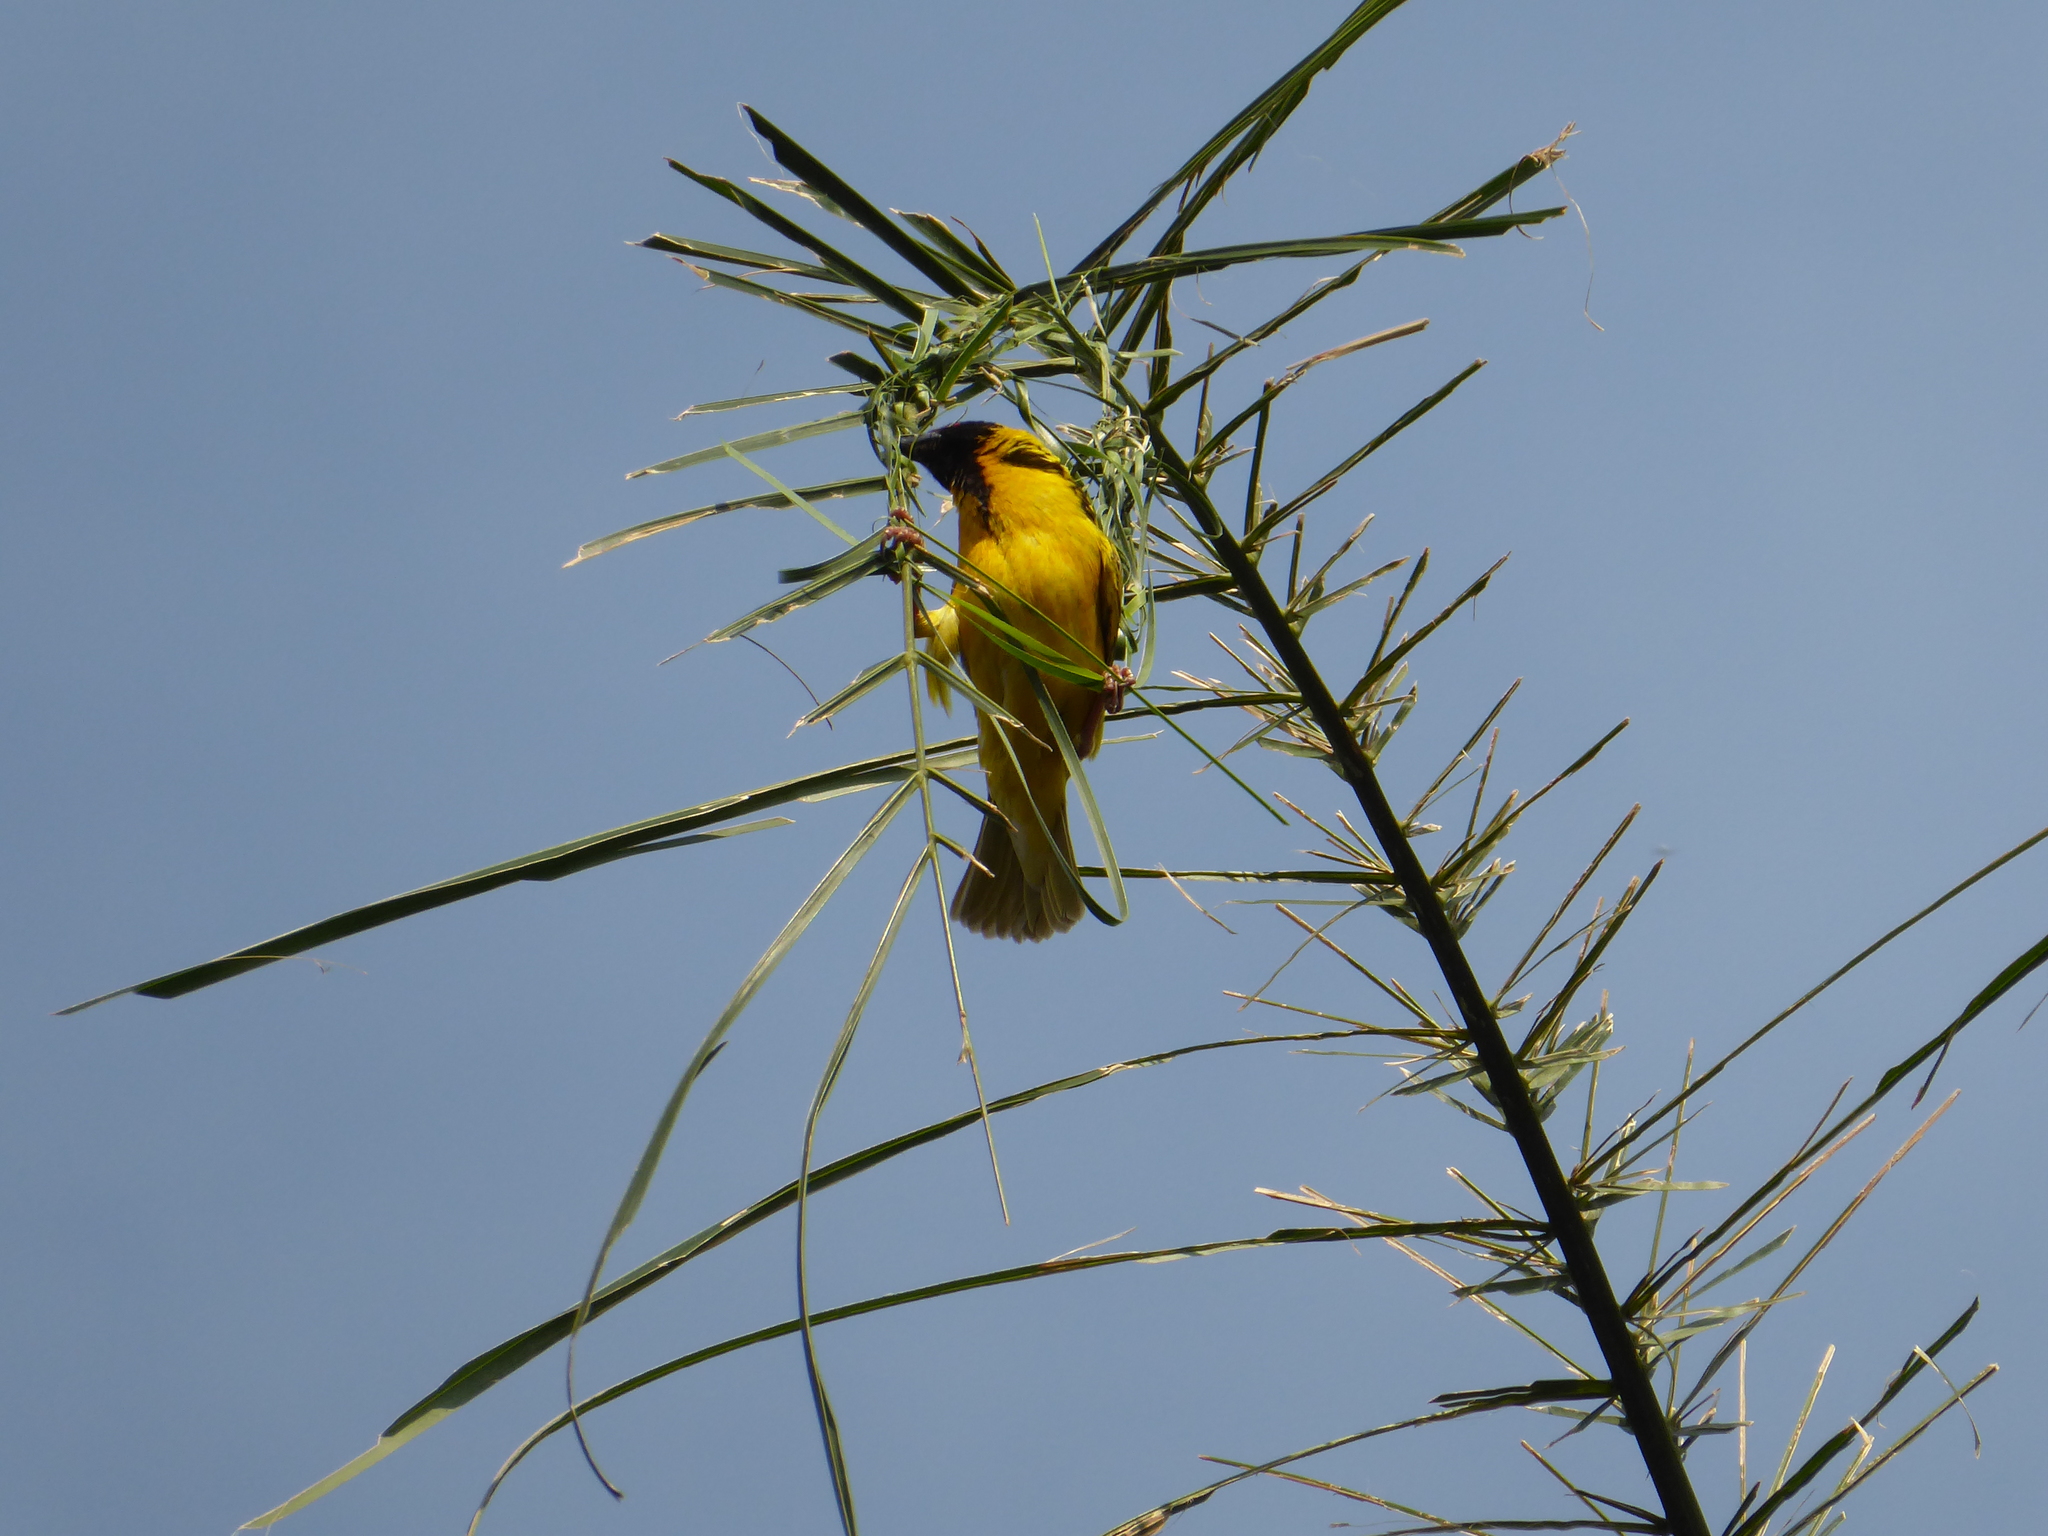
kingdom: Animalia
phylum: Chordata
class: Aves
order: Passeriformes
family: Ploceidae
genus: Ploceus
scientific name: Ploceus cucullatus
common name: Village weaver
